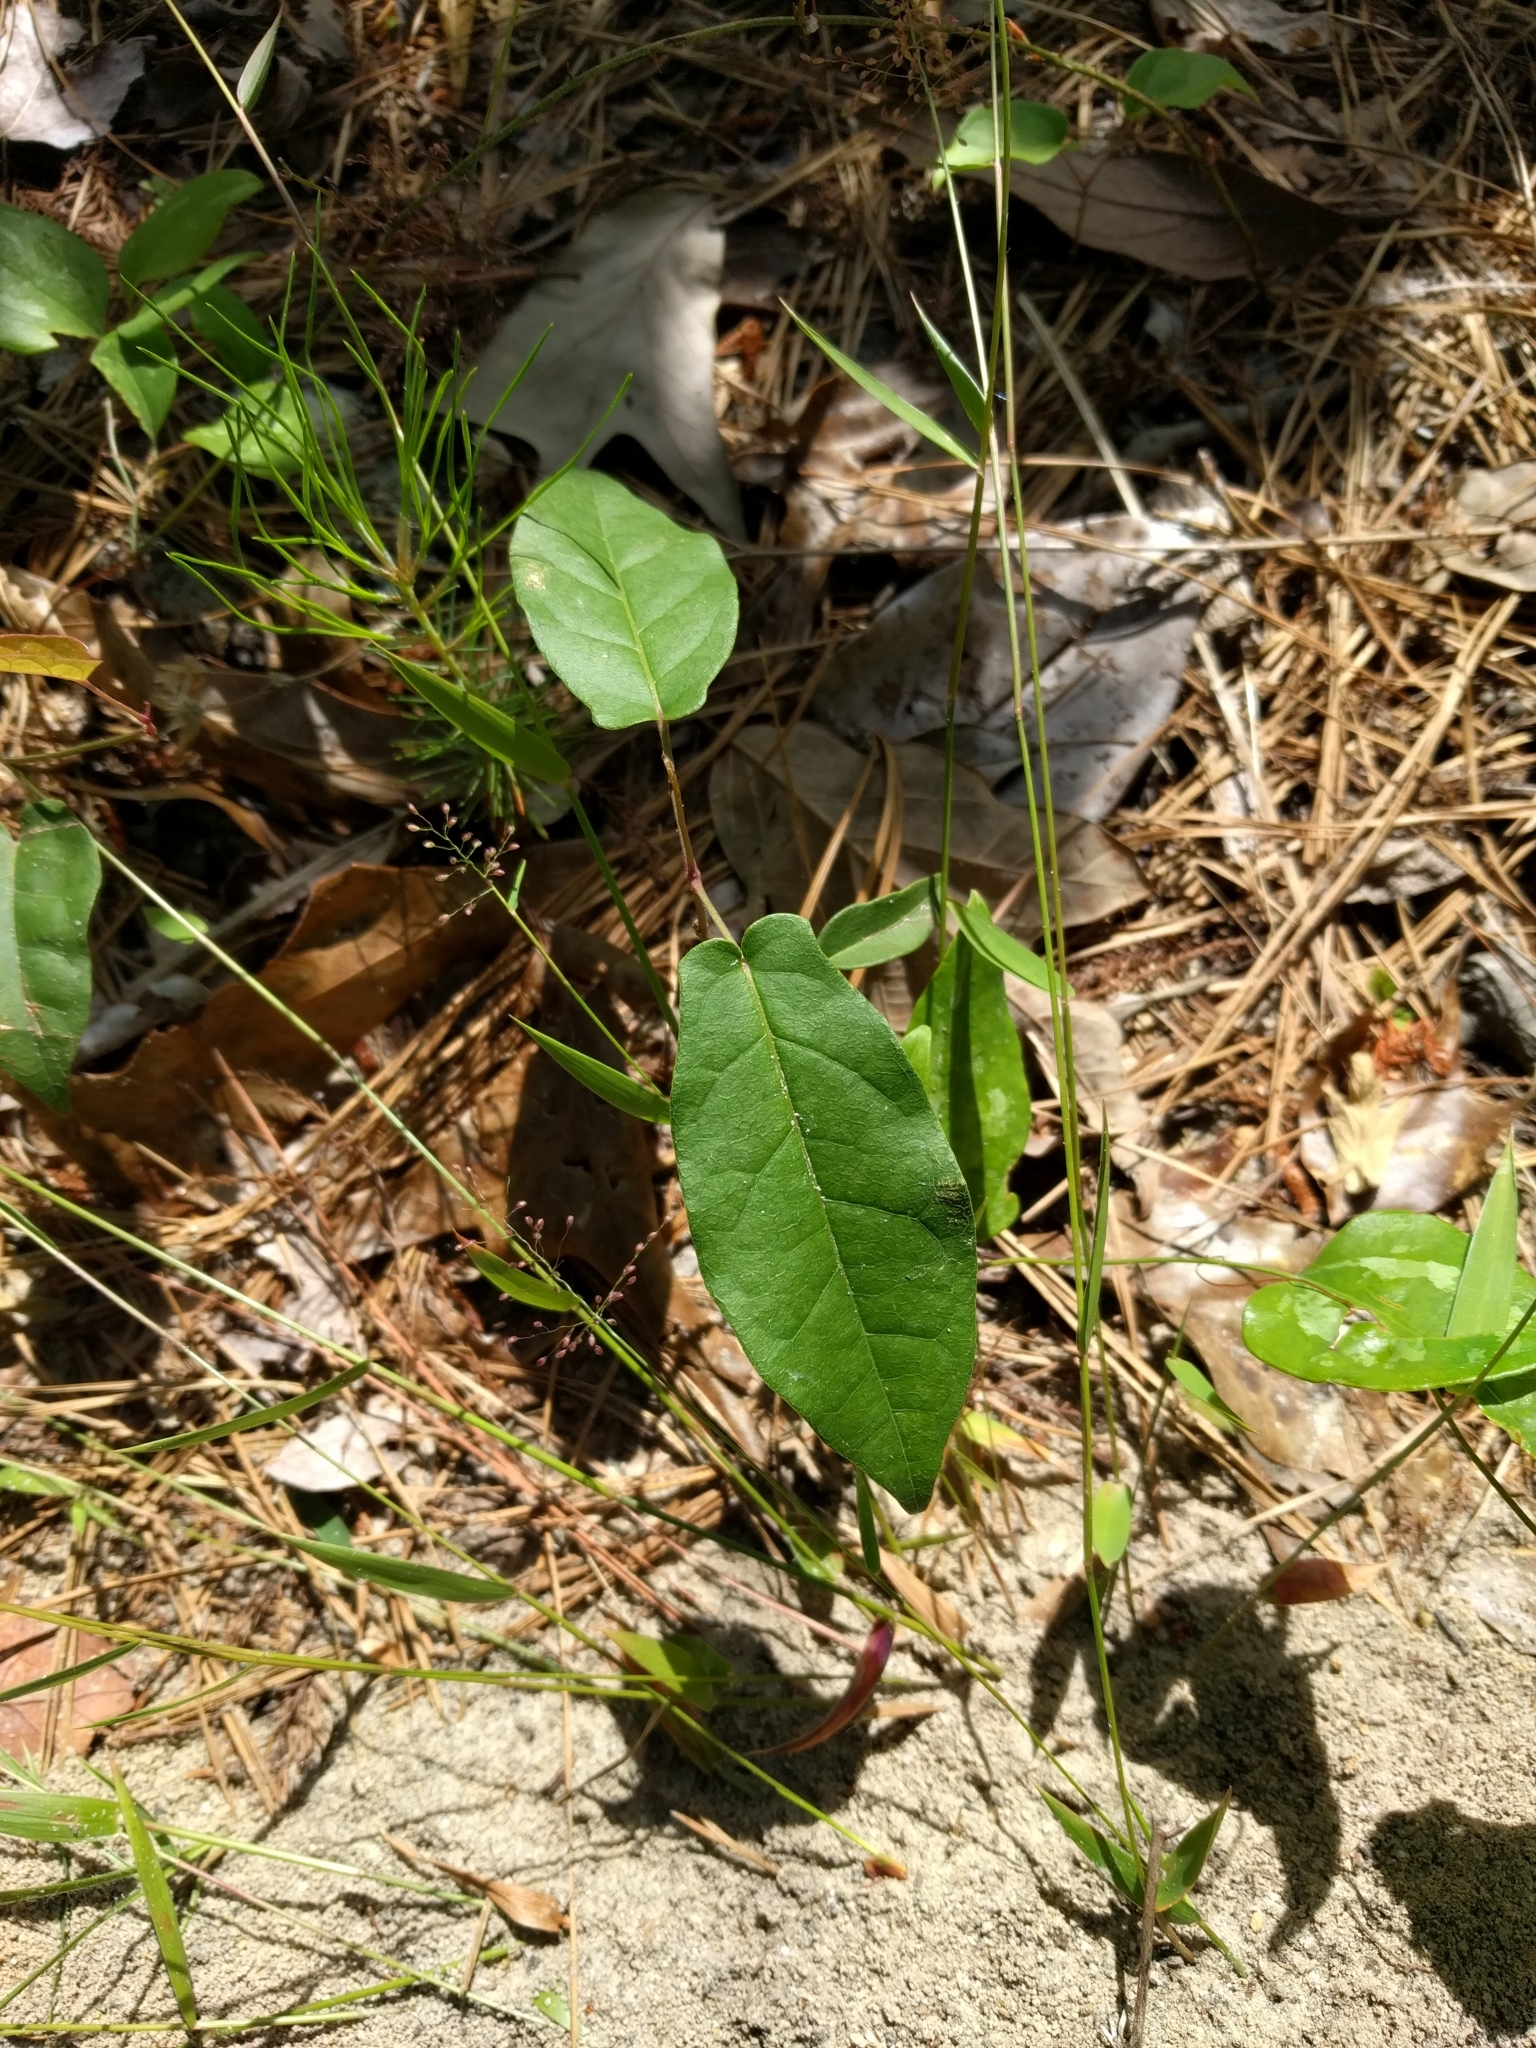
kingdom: Plantae
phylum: Tracheophyta
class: Magnoliopsida
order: Lamiales
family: Bignoniaceae
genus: Bignonia
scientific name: Bignonia capreolata
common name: Crossvine
